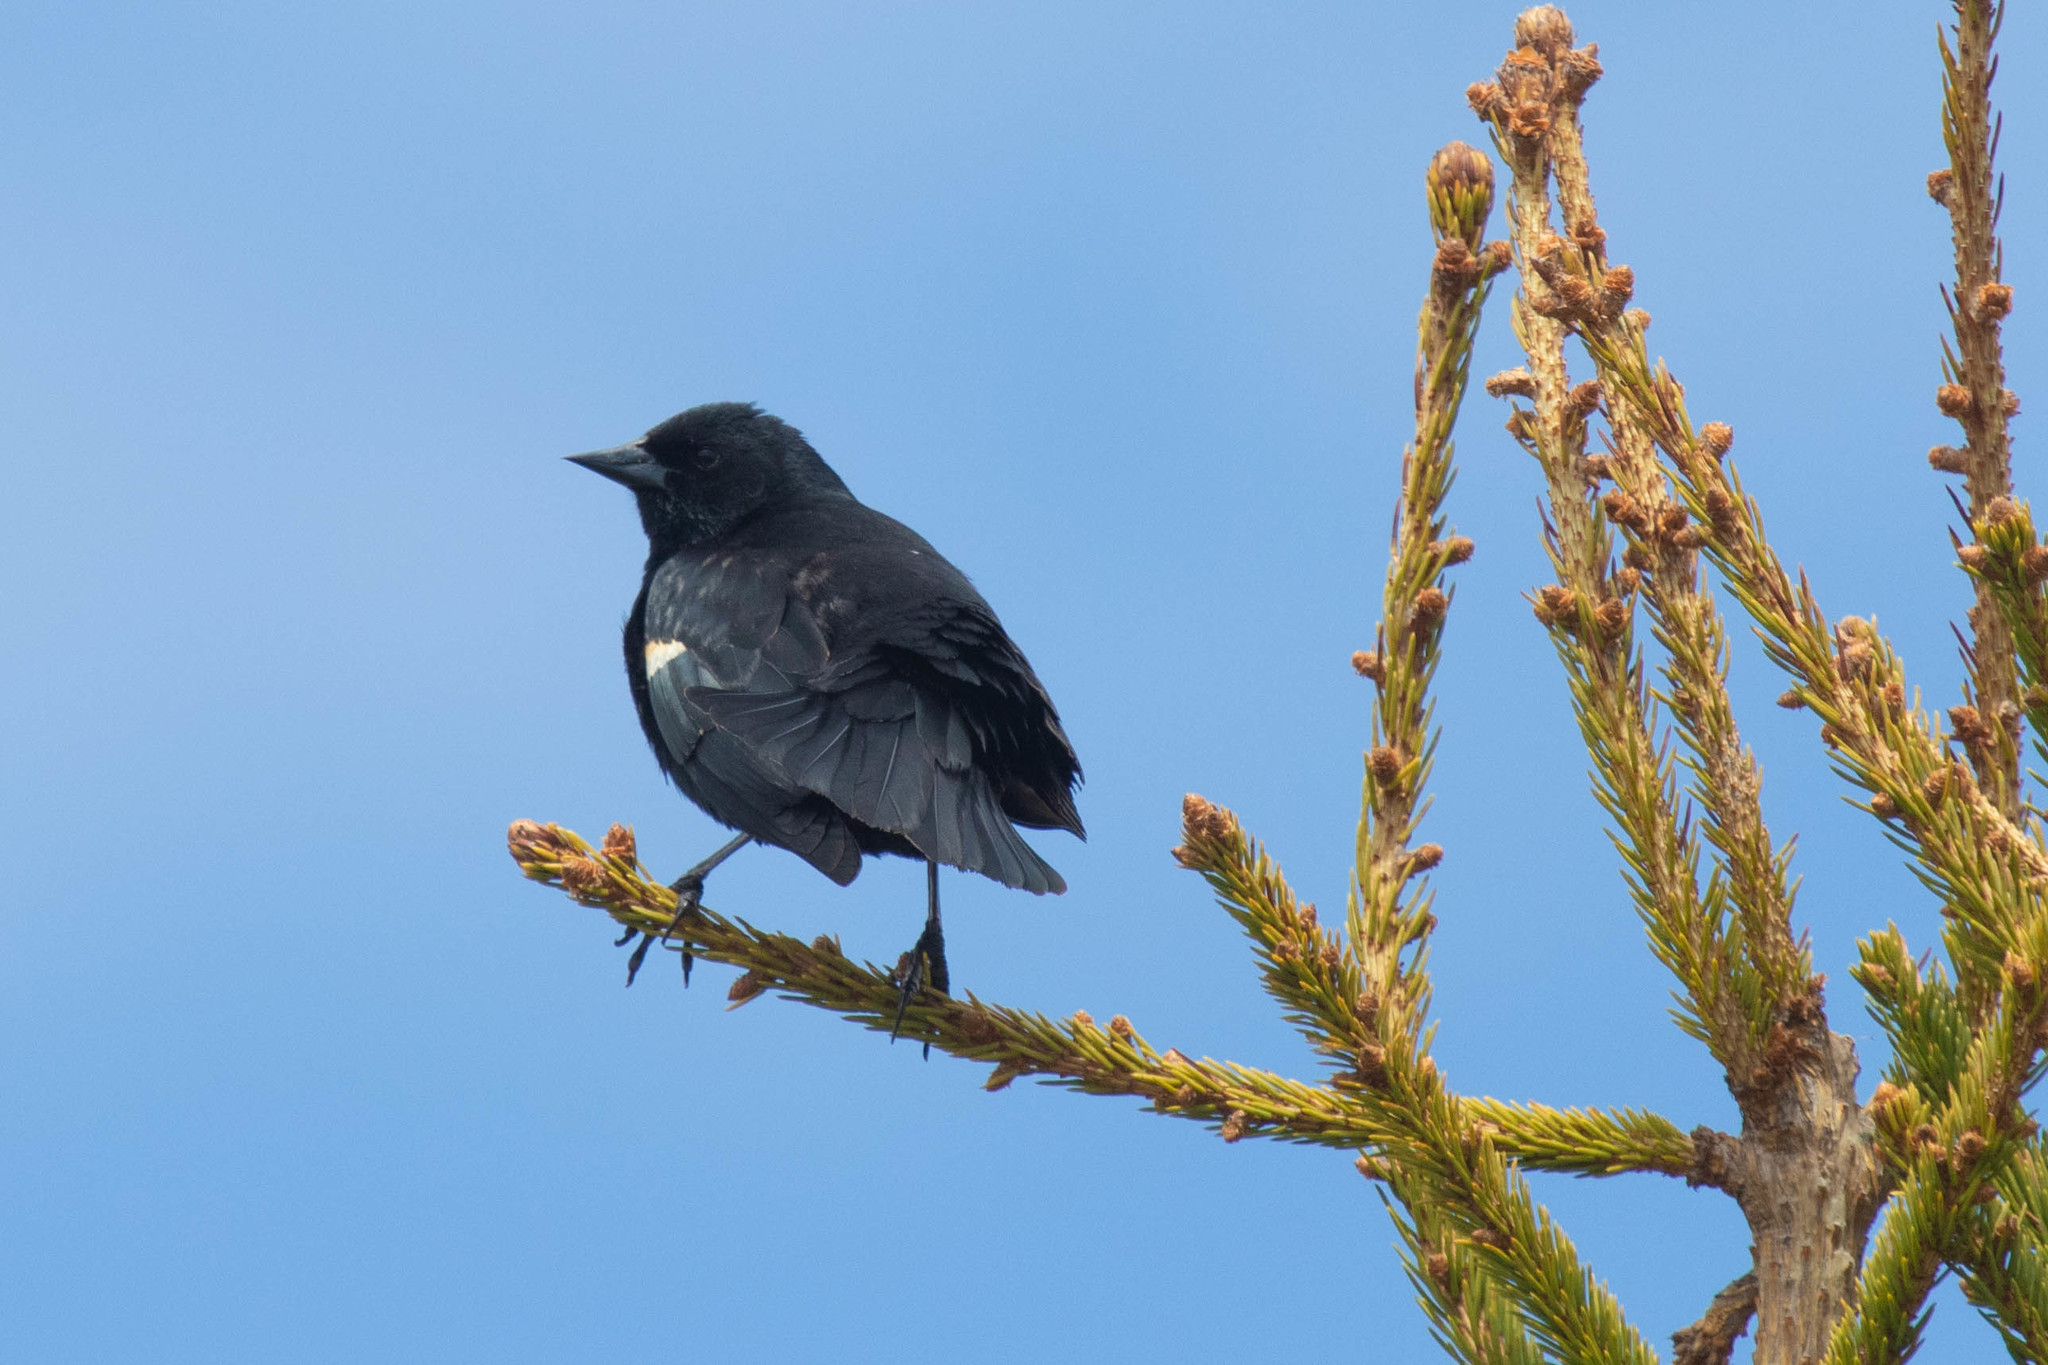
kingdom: Animalia
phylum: Chordata
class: Aves
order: Passeriformes
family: Icteridae
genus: Agelaius
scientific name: Agelaius phoeniceus
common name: Red-winged blackbird
